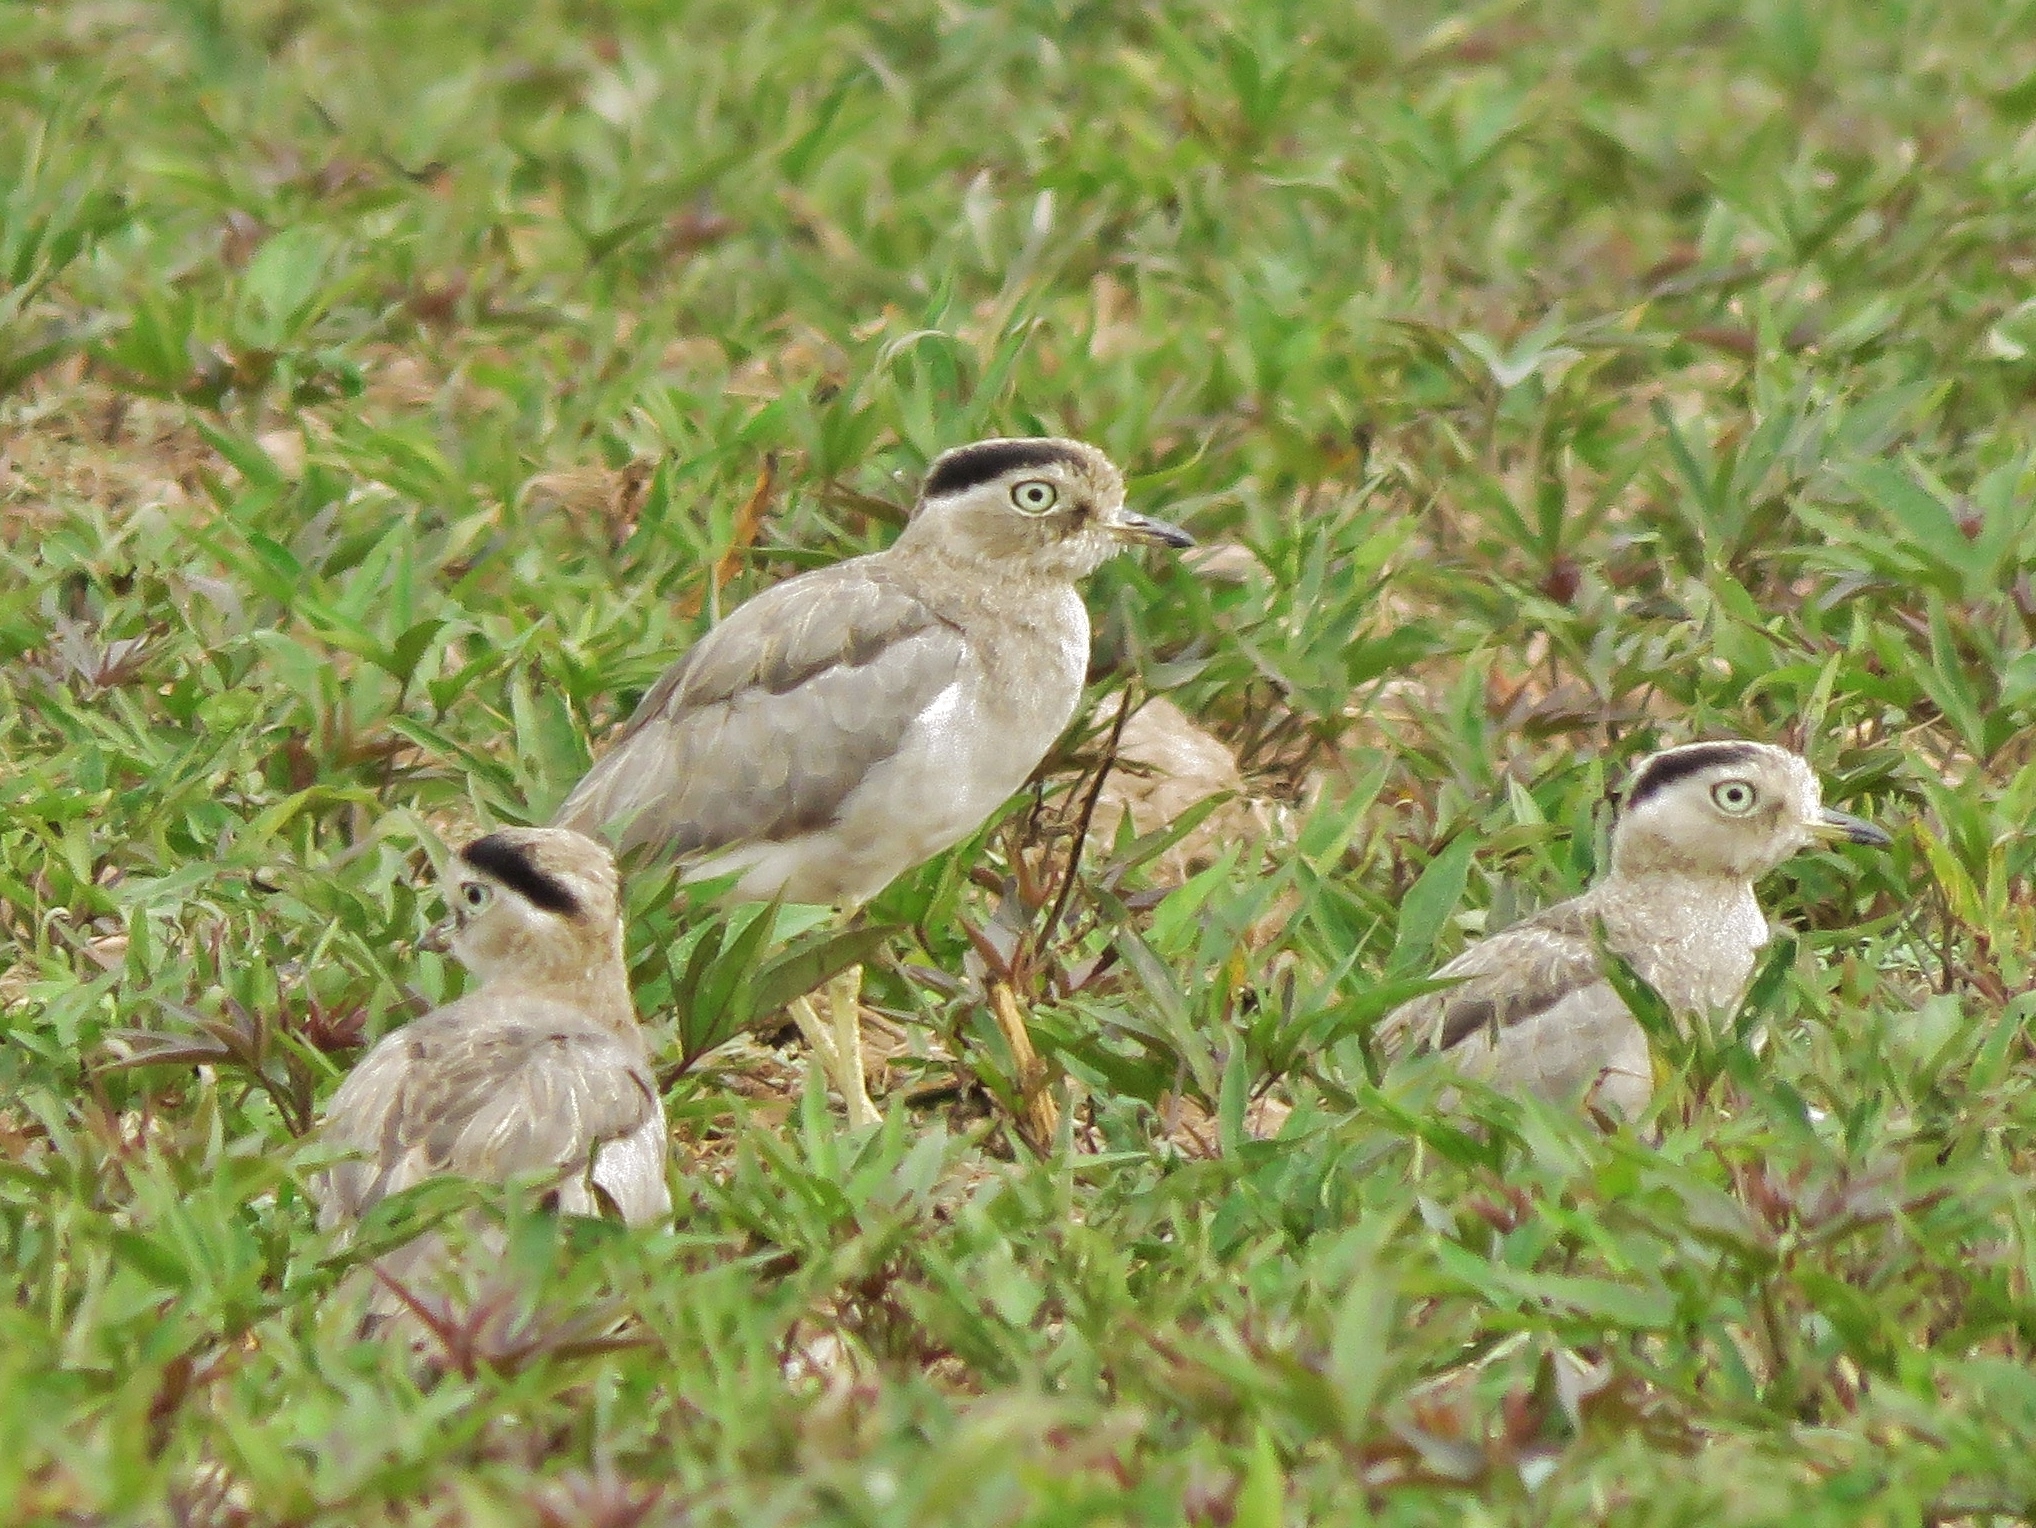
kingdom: Animalia
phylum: Chordata
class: Aves
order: Charadriiformes
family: Burhinidae
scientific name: Burhinidae
